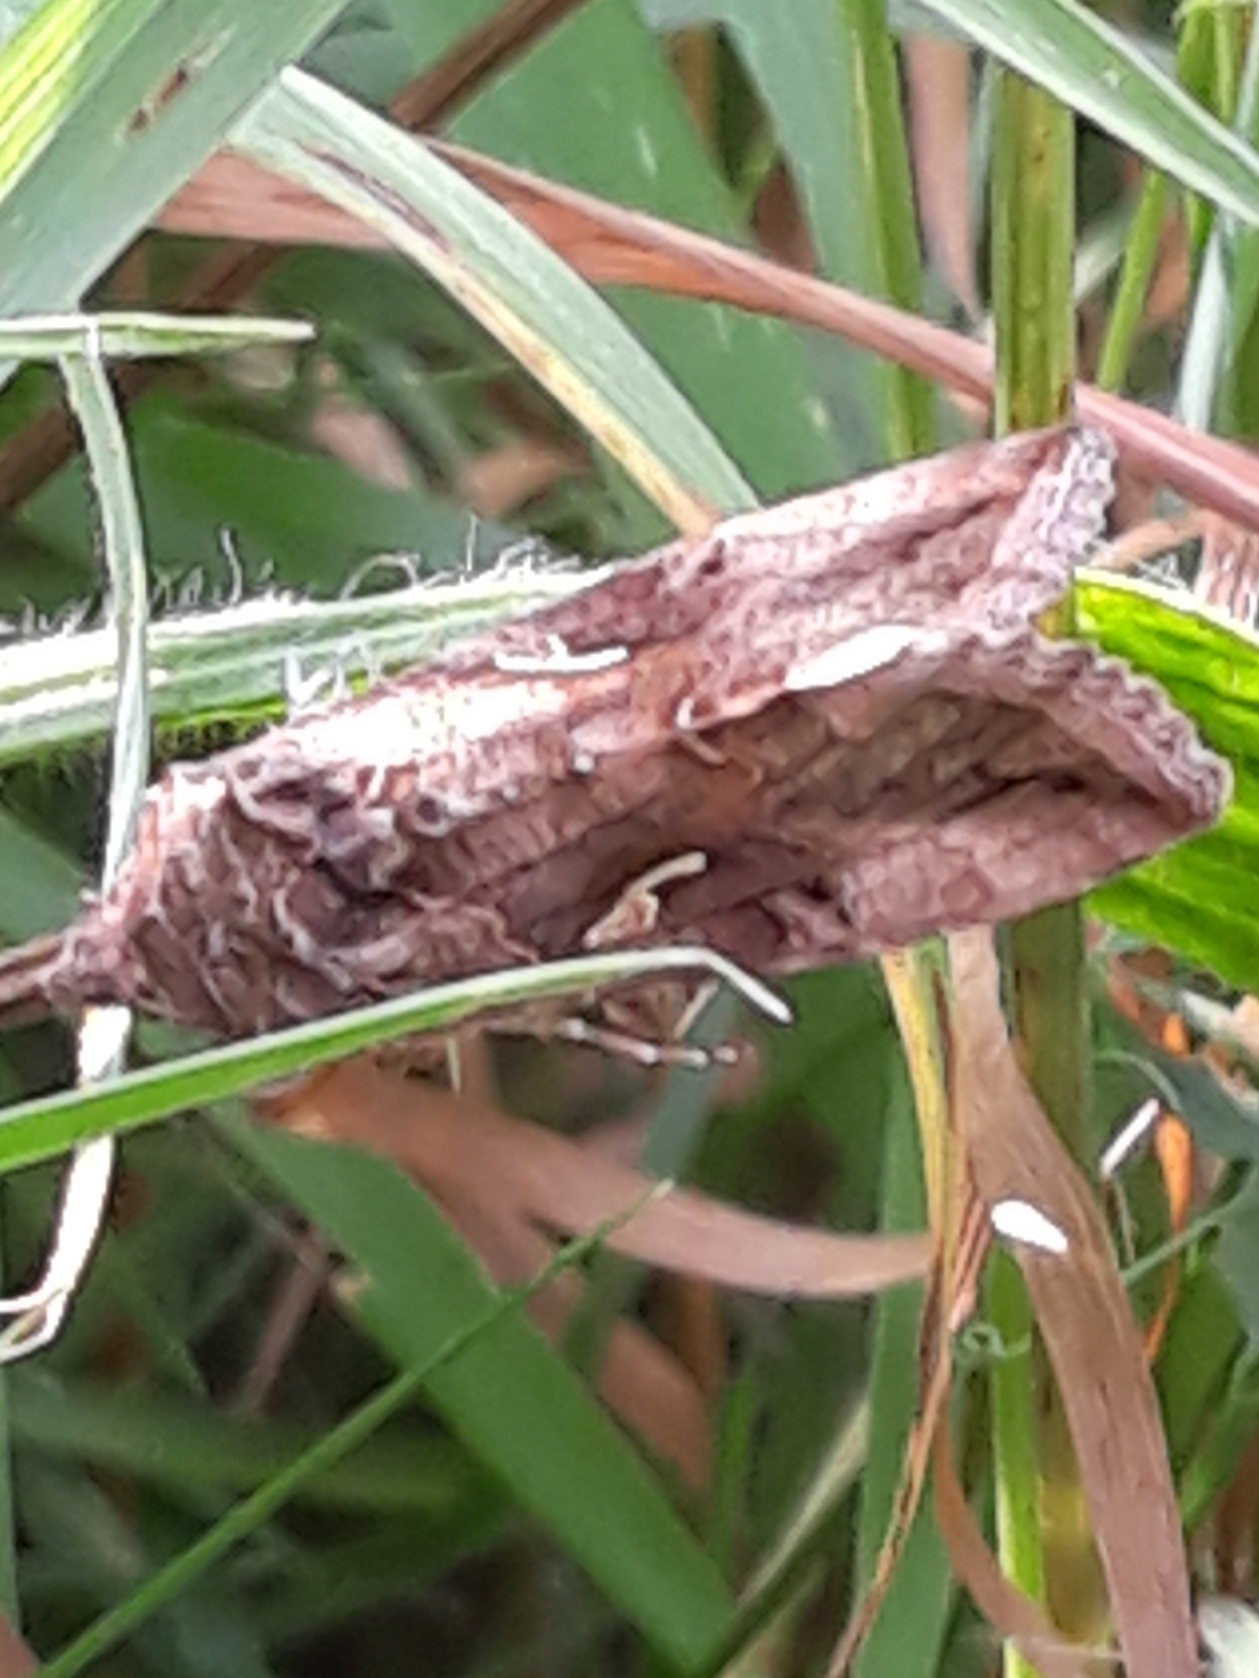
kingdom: Animalia
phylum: Arthropoda
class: Insecta
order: Lepidoptera
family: Noctuidae
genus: Autographa
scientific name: Autographa gamma
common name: Silver y
